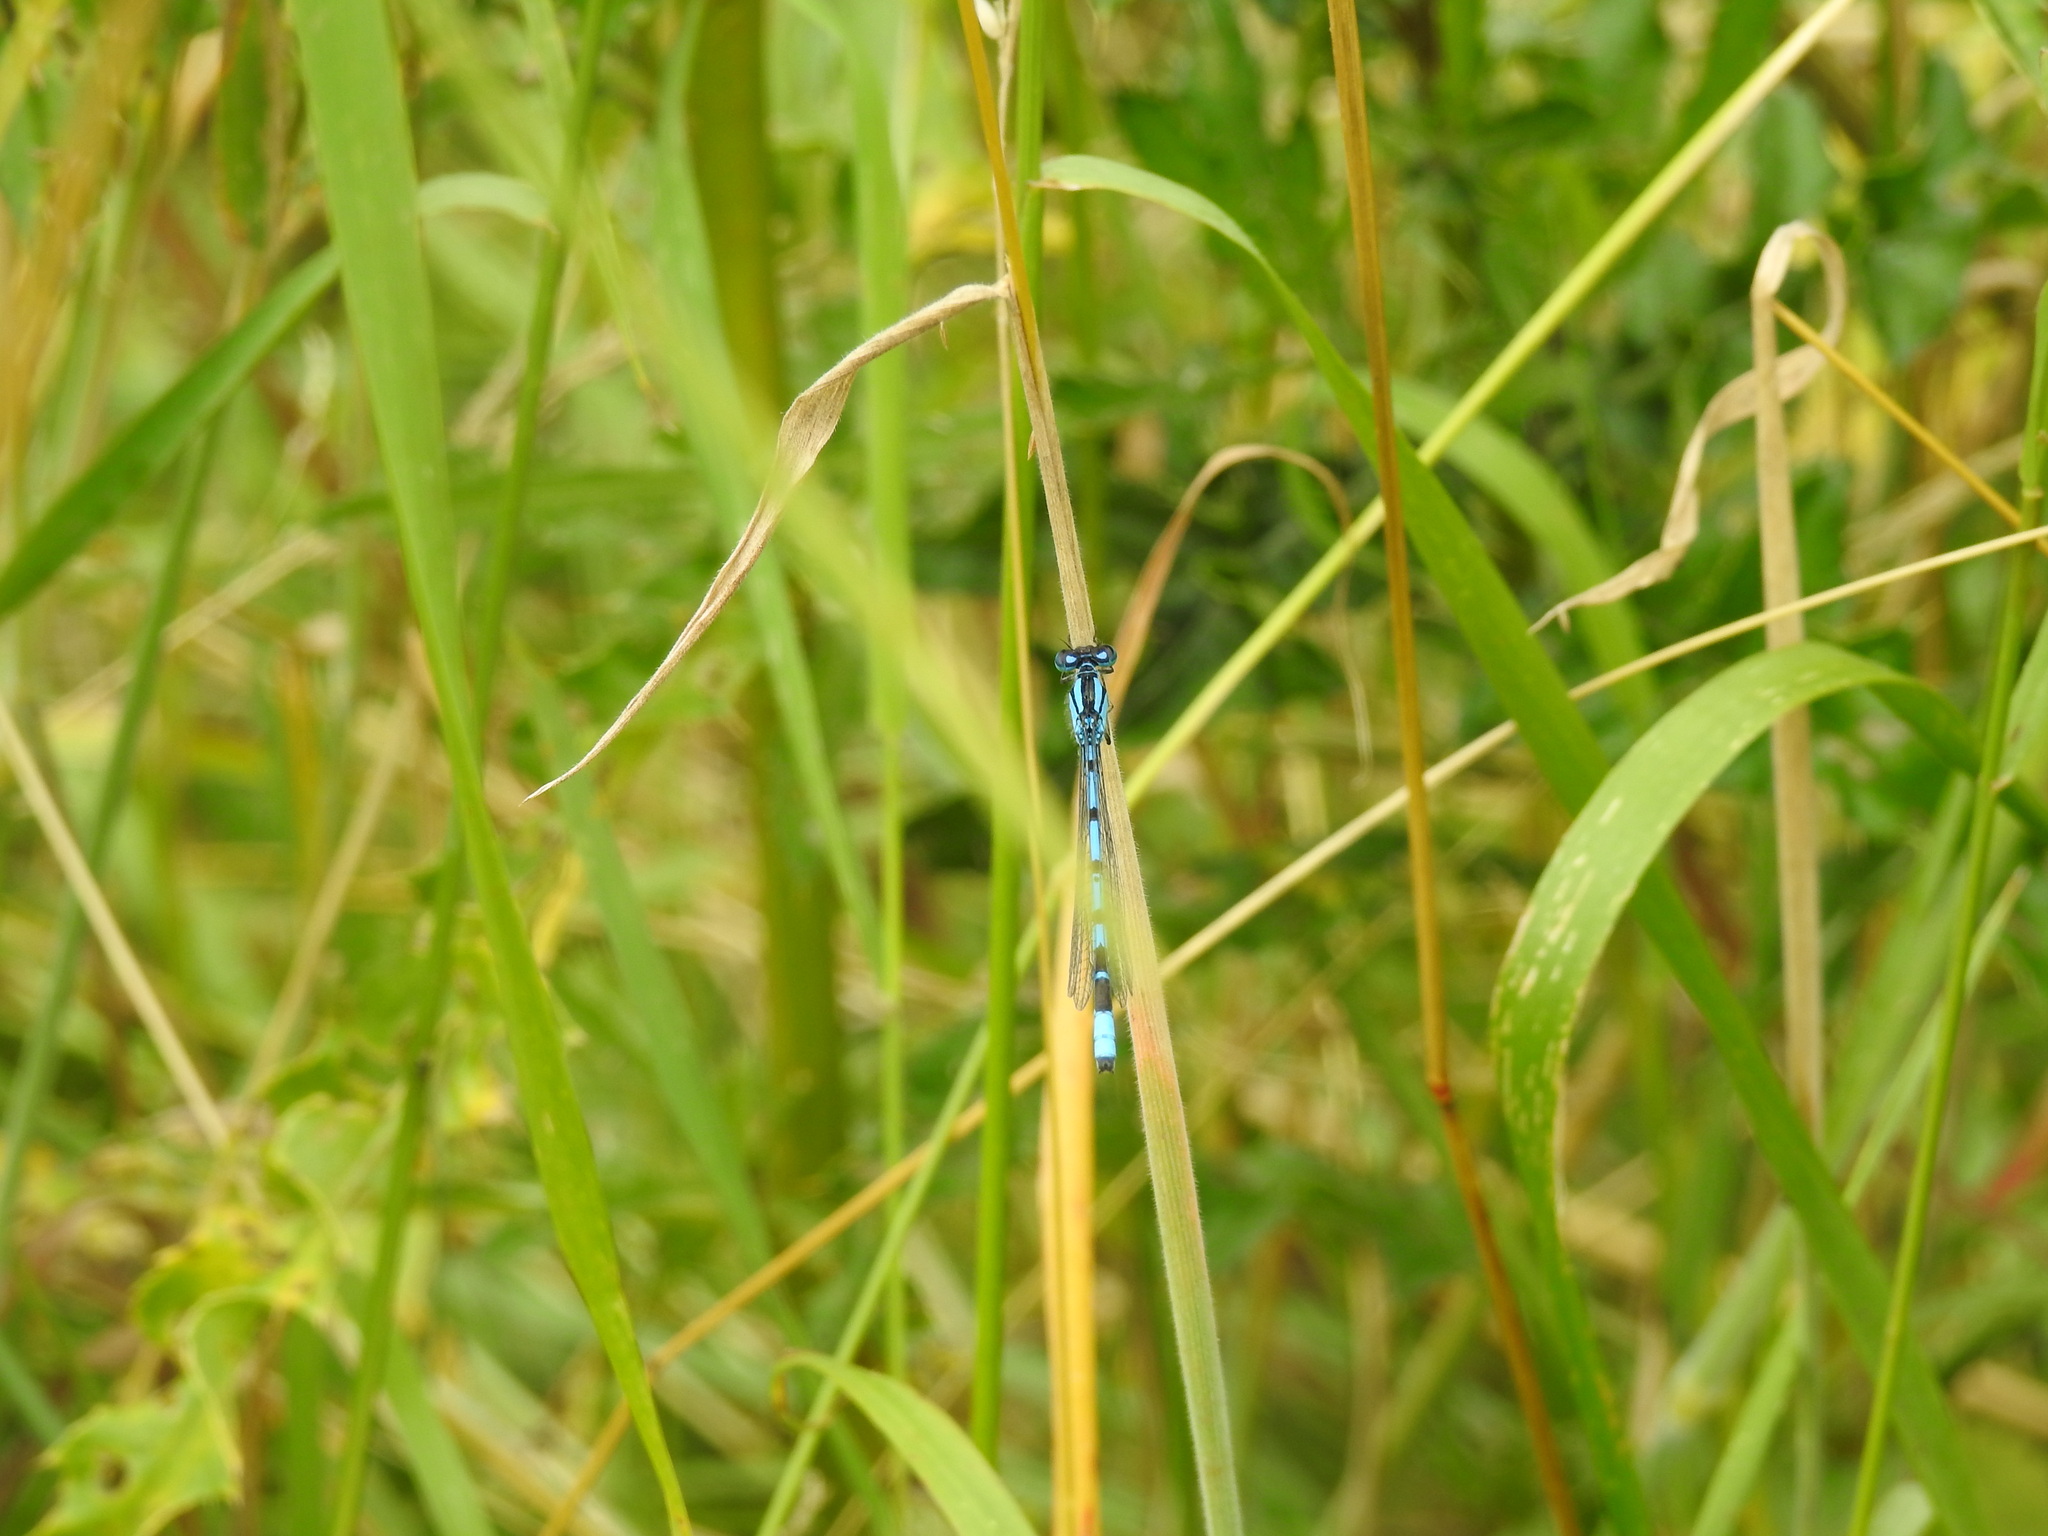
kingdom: Animalia
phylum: Arthropoda
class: Insecta
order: Odonata
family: Coenagrionidae
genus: Enallagma
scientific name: Enallagma cyathigerum
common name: Common blue damselfly
